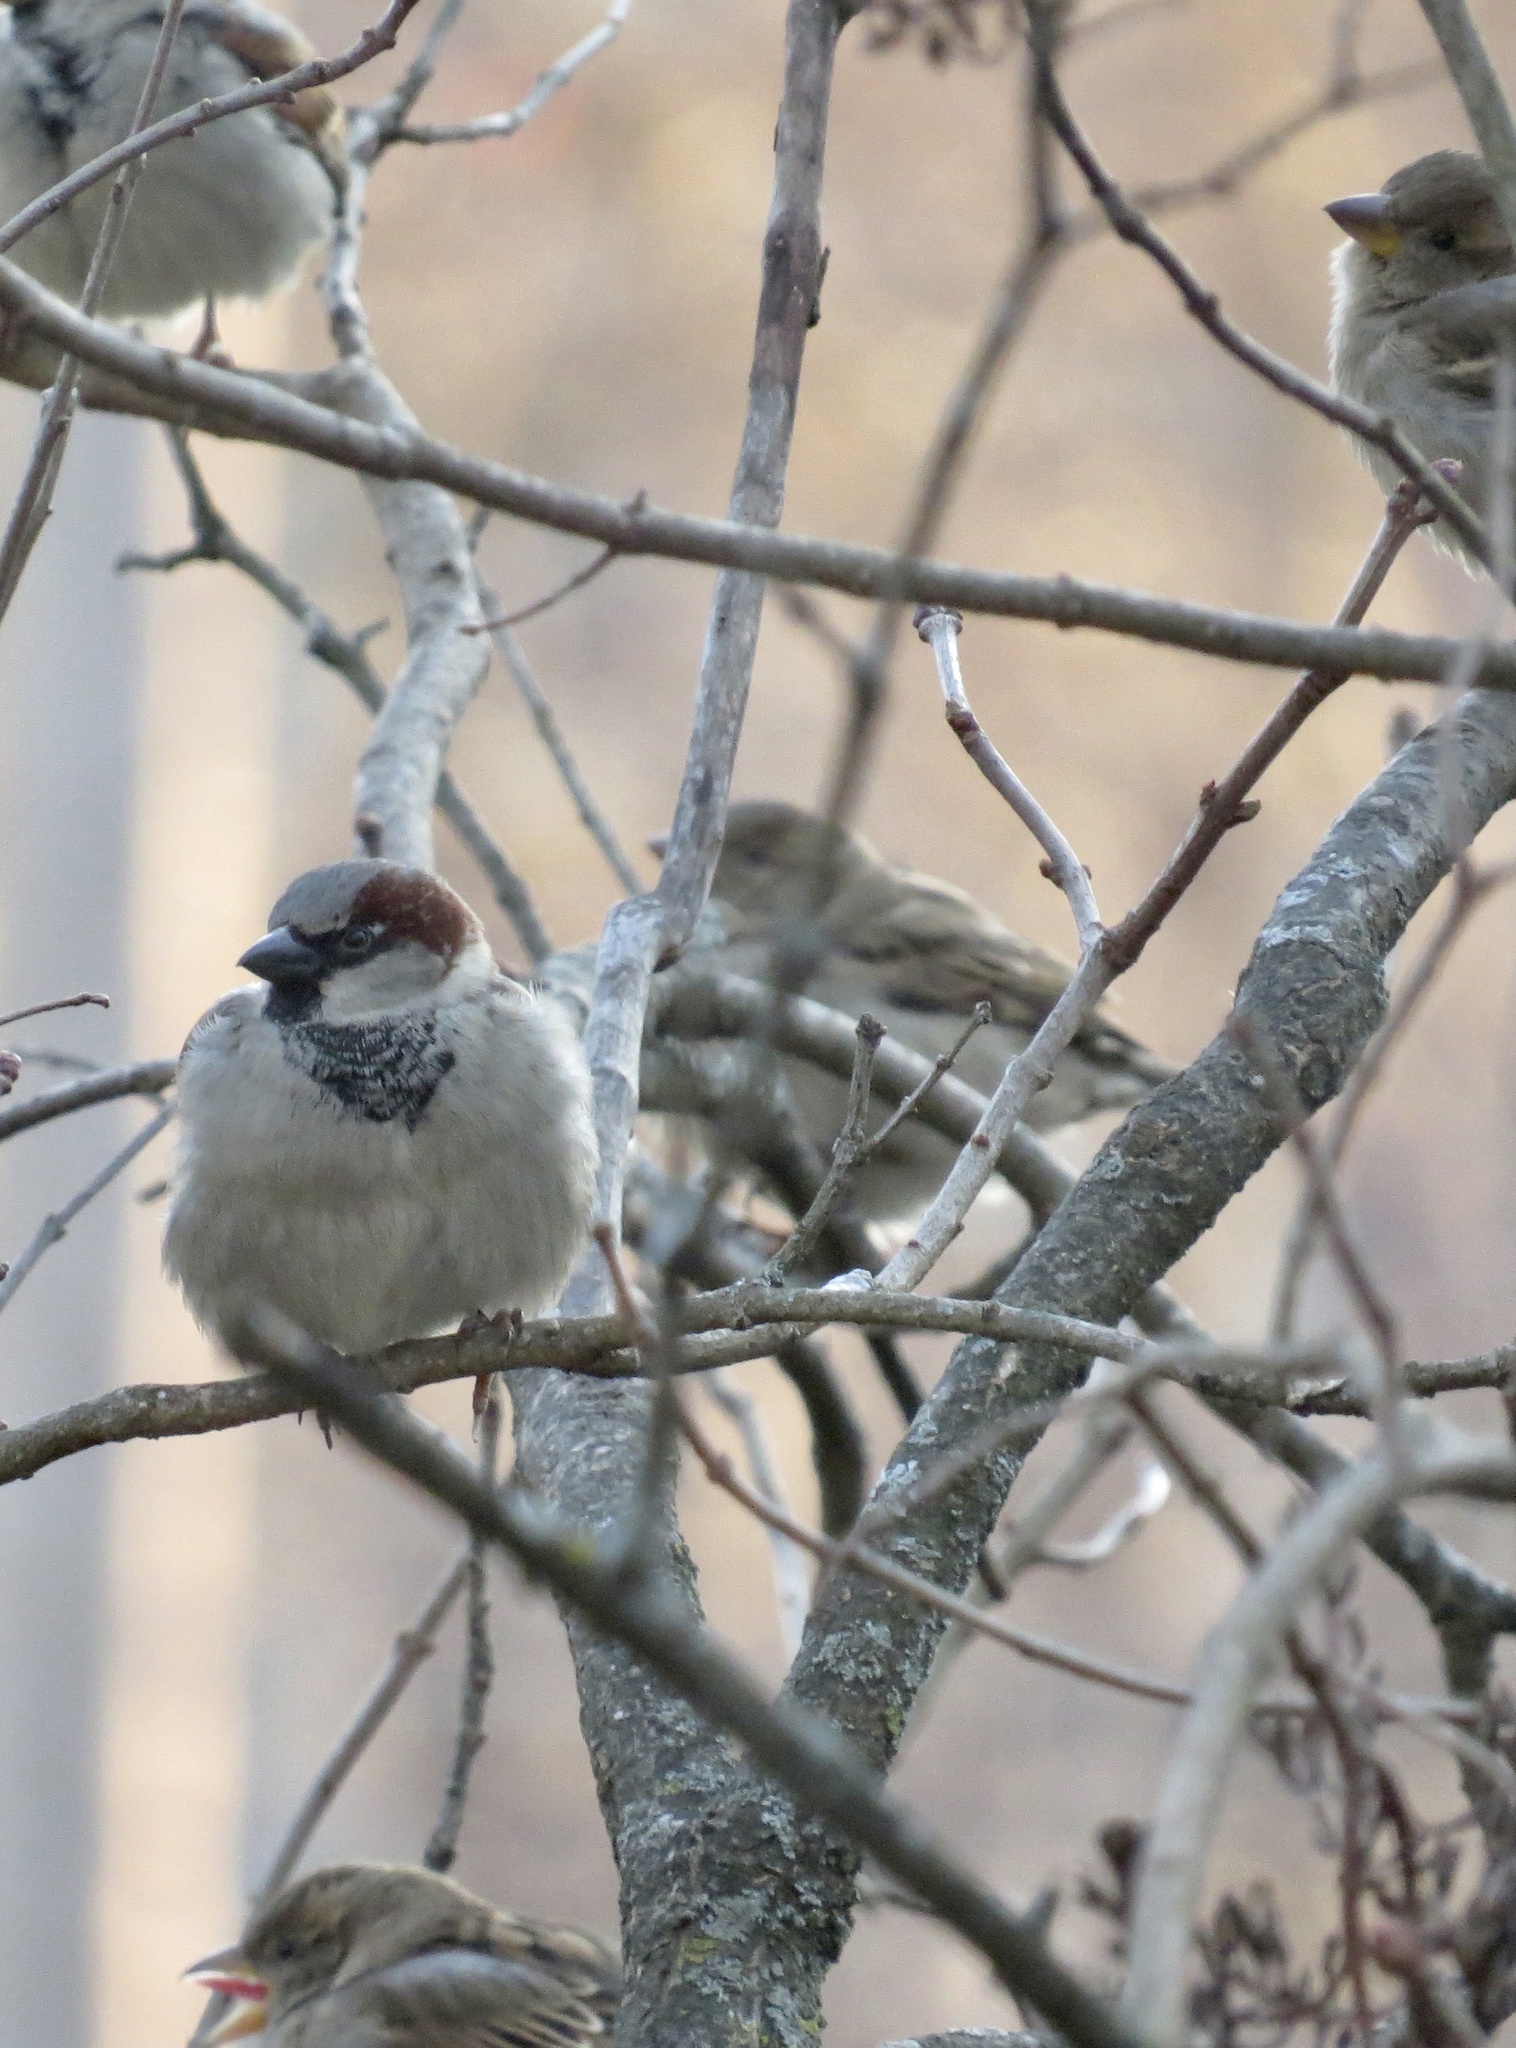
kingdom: Animalia
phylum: Chordata
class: Aves
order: Passeriformes
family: Passeridae
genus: Passer
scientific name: Passer domesticus
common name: House sparrow
